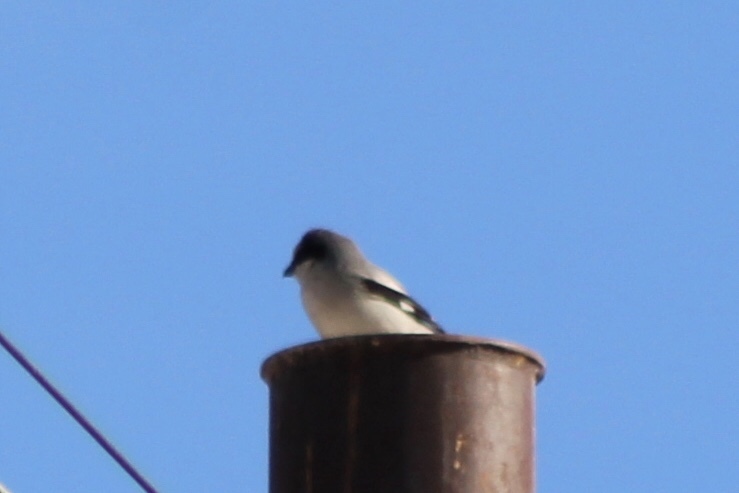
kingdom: Animalia
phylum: Chordata
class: Aves
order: Passeriformes
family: Laniidae
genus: Lanius
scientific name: Lanius ludovicianus
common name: Loggerhead shrike
